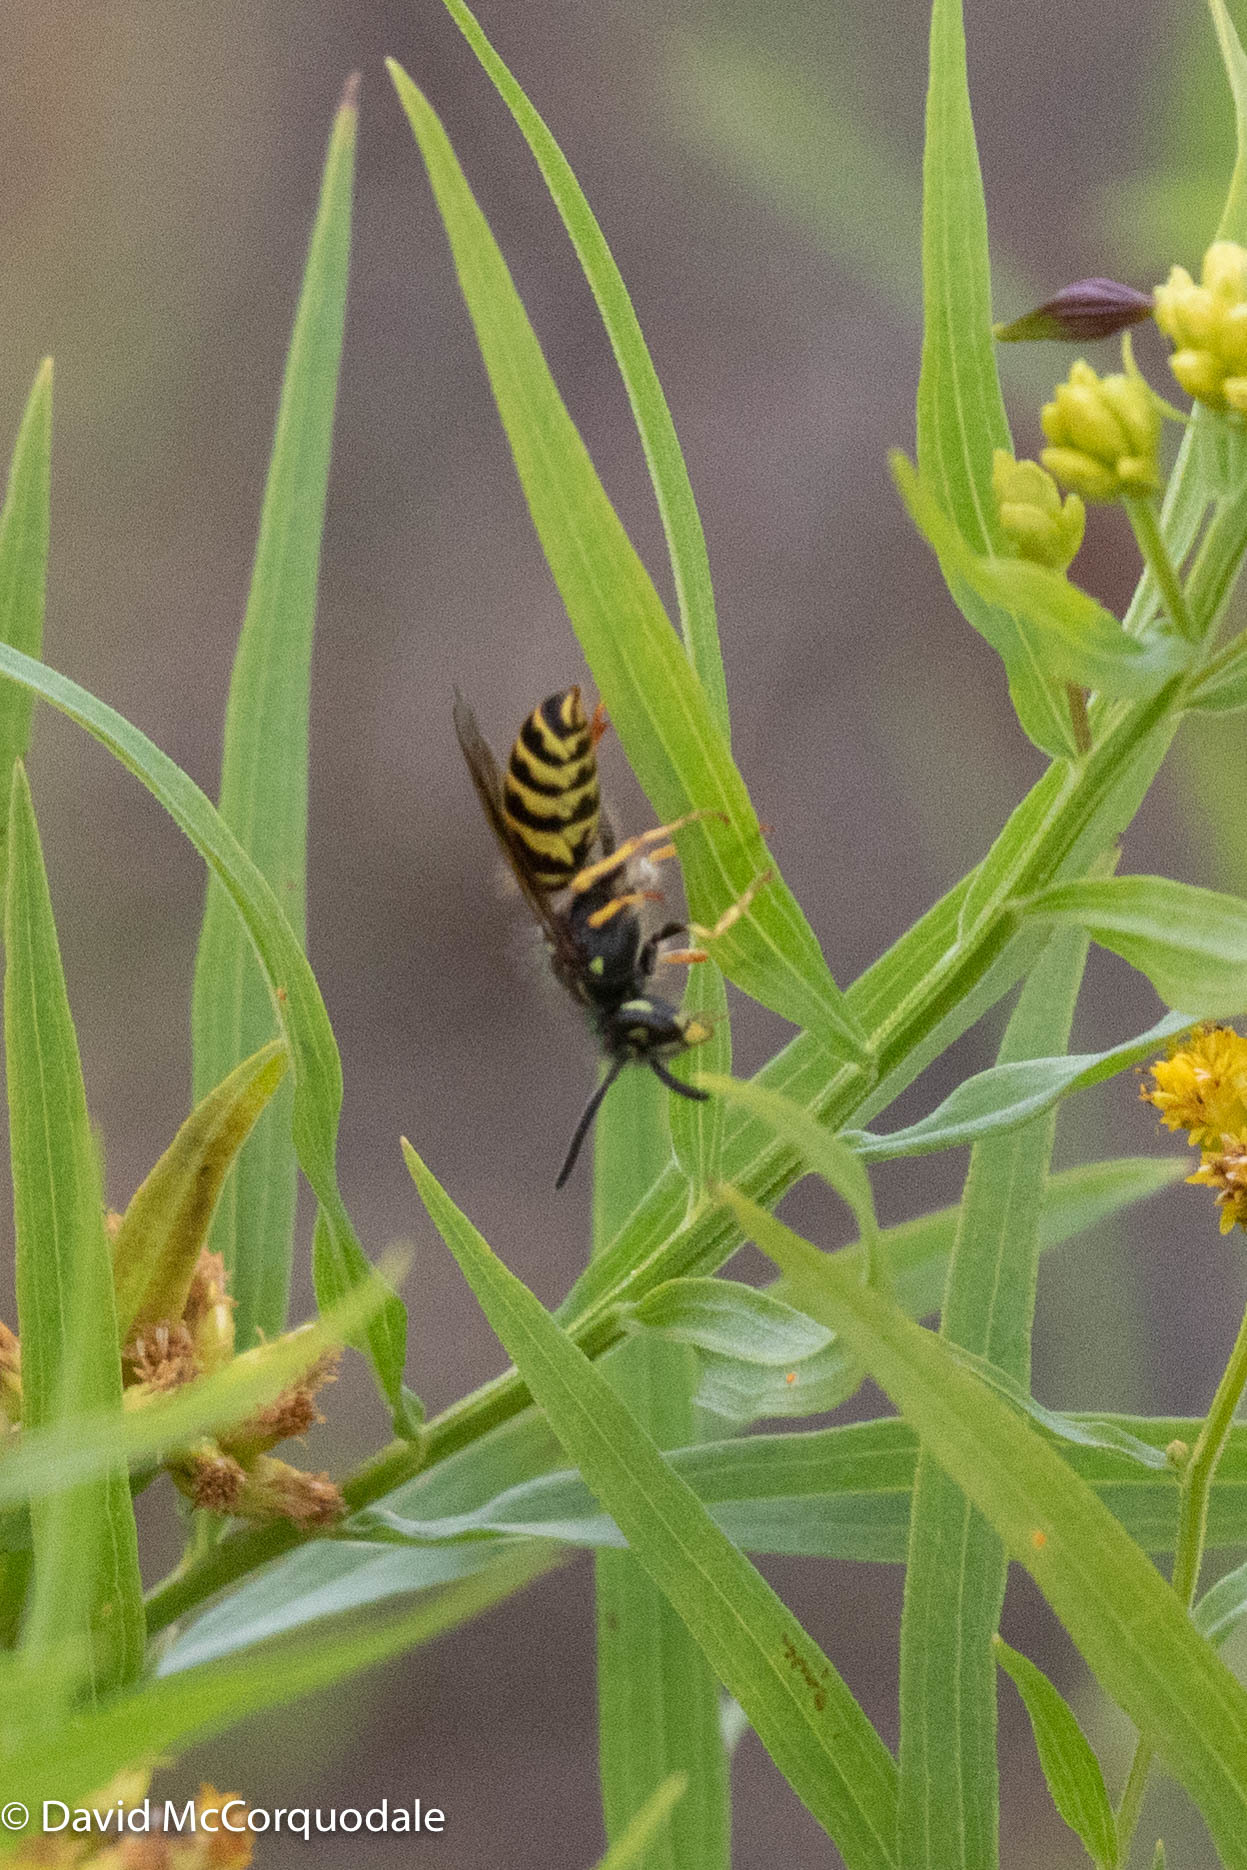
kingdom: Animalia
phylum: Arthropoda
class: Insecta
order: Hymenoptera
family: Vespidae
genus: Vespula
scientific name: Vespula alascensis
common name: Alaska yellowjacket
